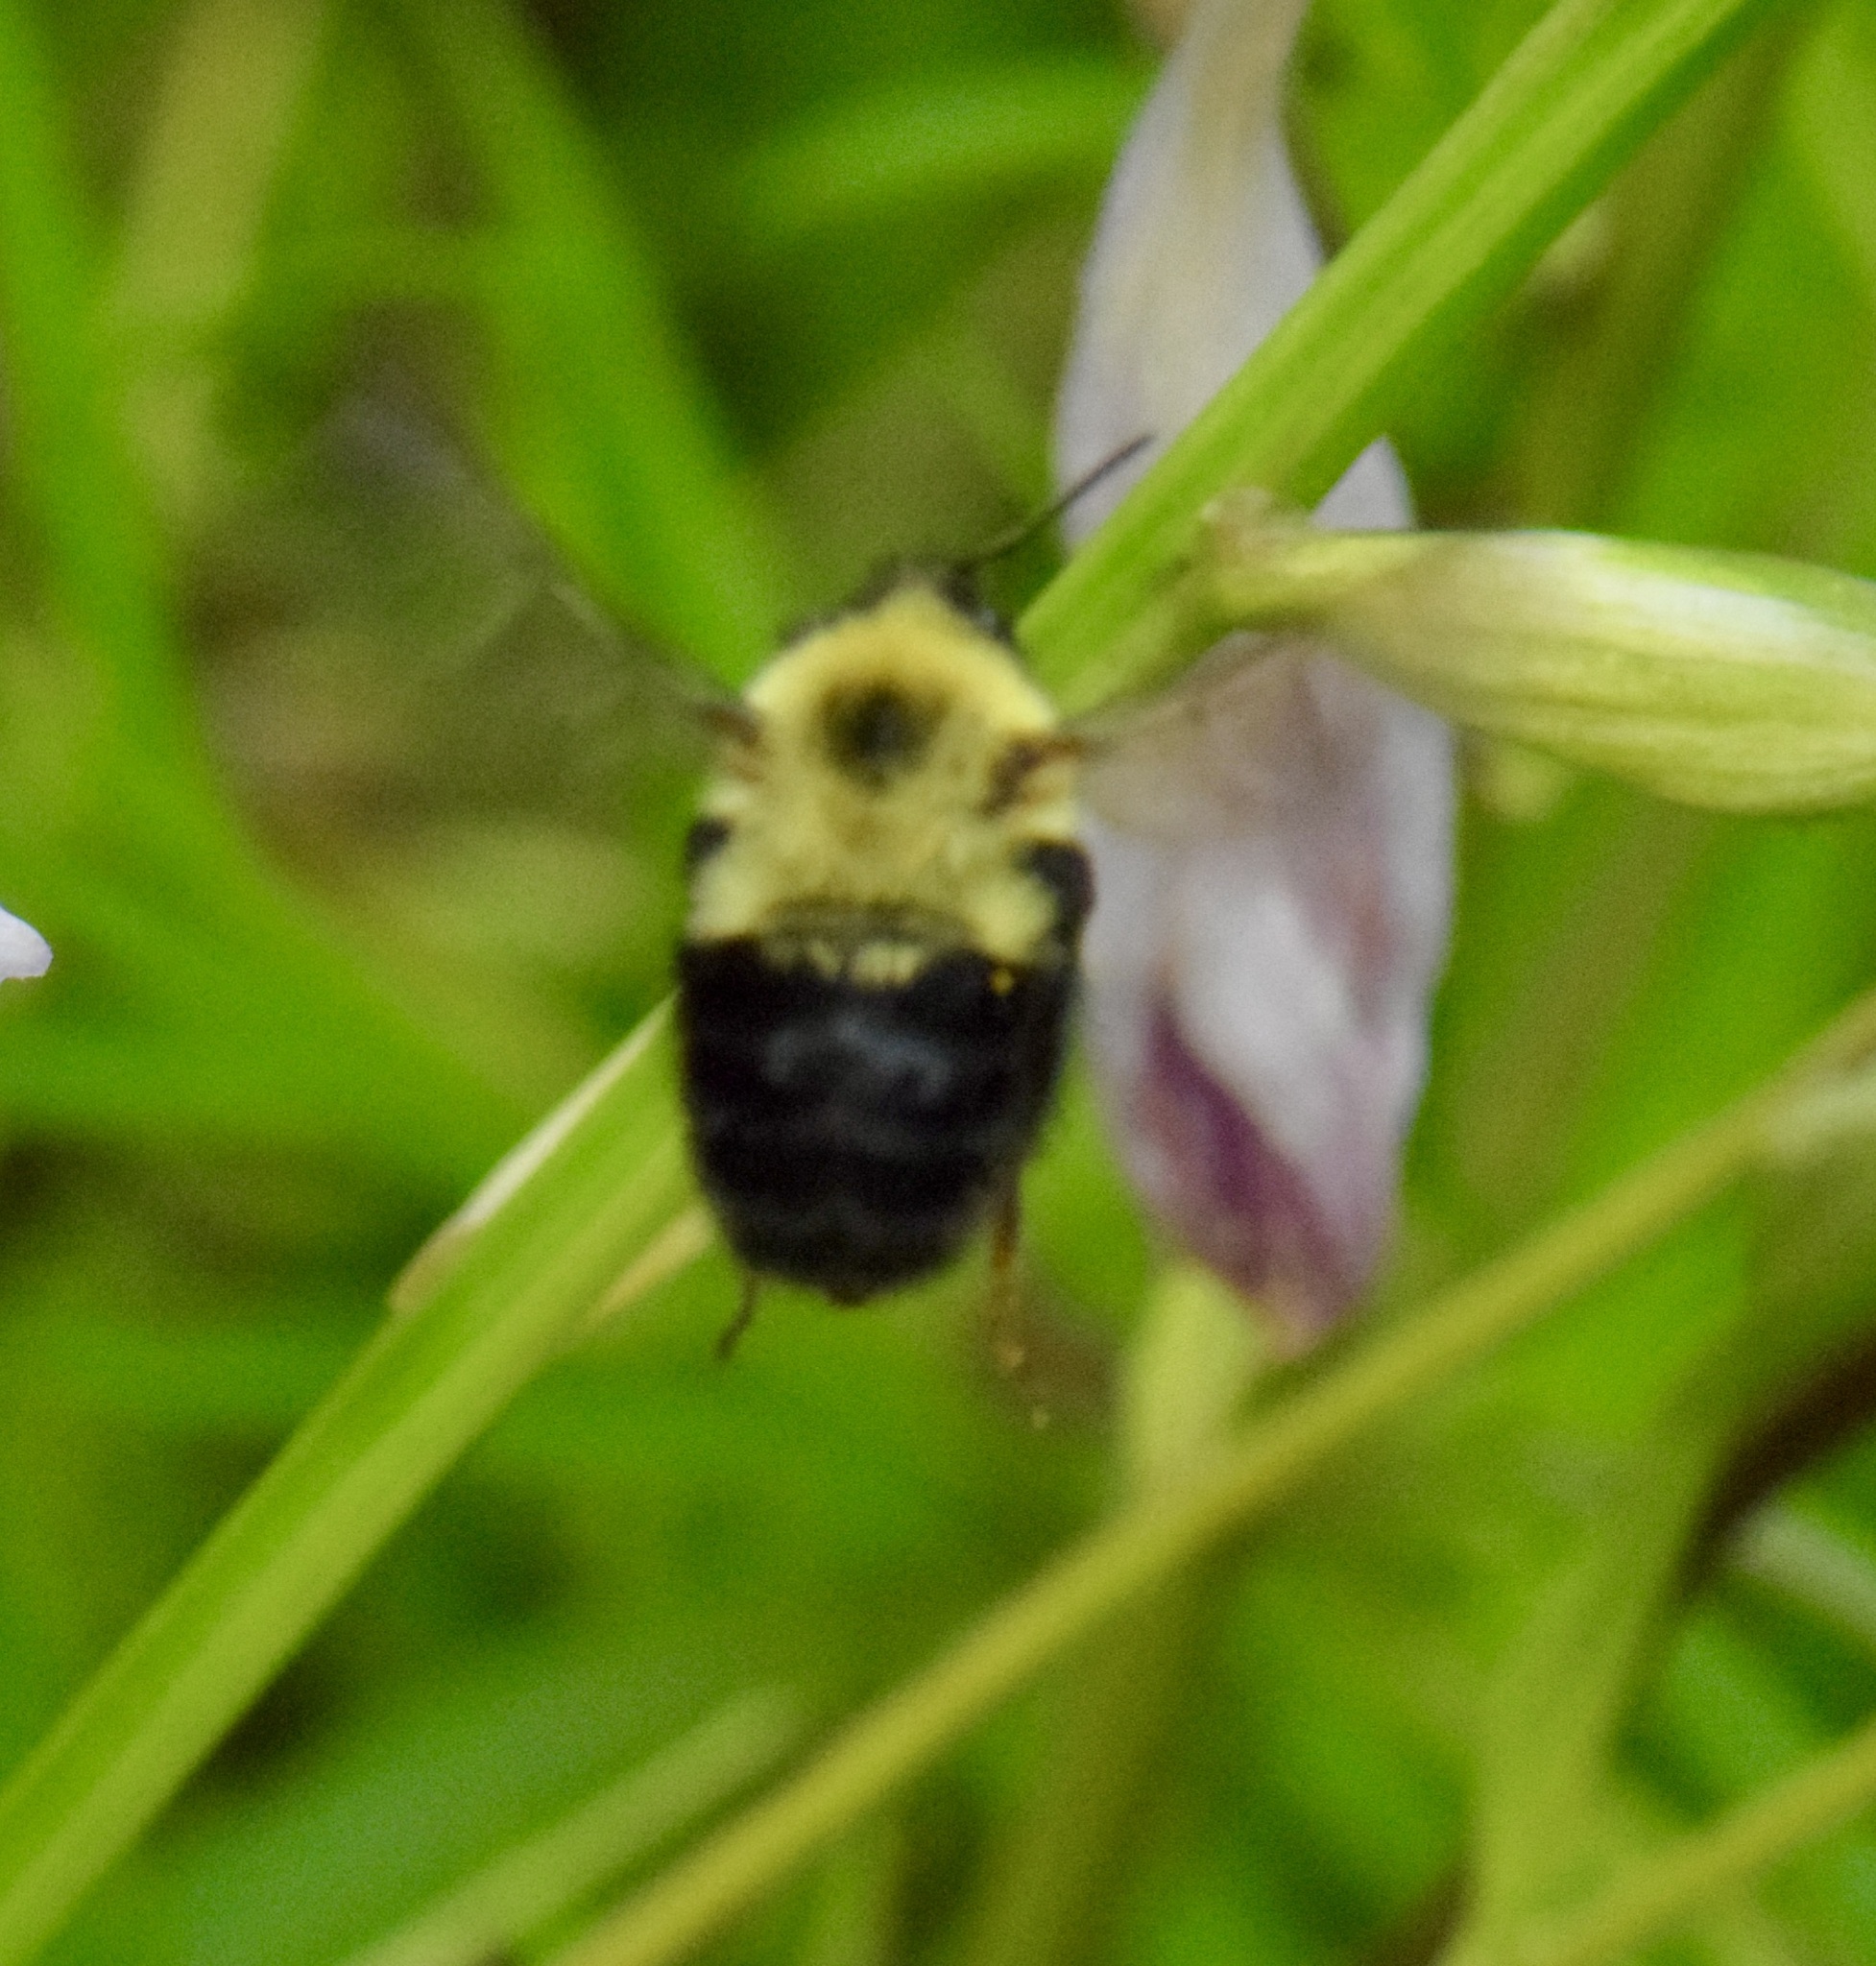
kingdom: Animalia
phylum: Arthropoda
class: Insecta
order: Hymenoptera
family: Apidae
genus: Bombus
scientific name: Bombus bimaculatus
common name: Two-spotted bumble bee
